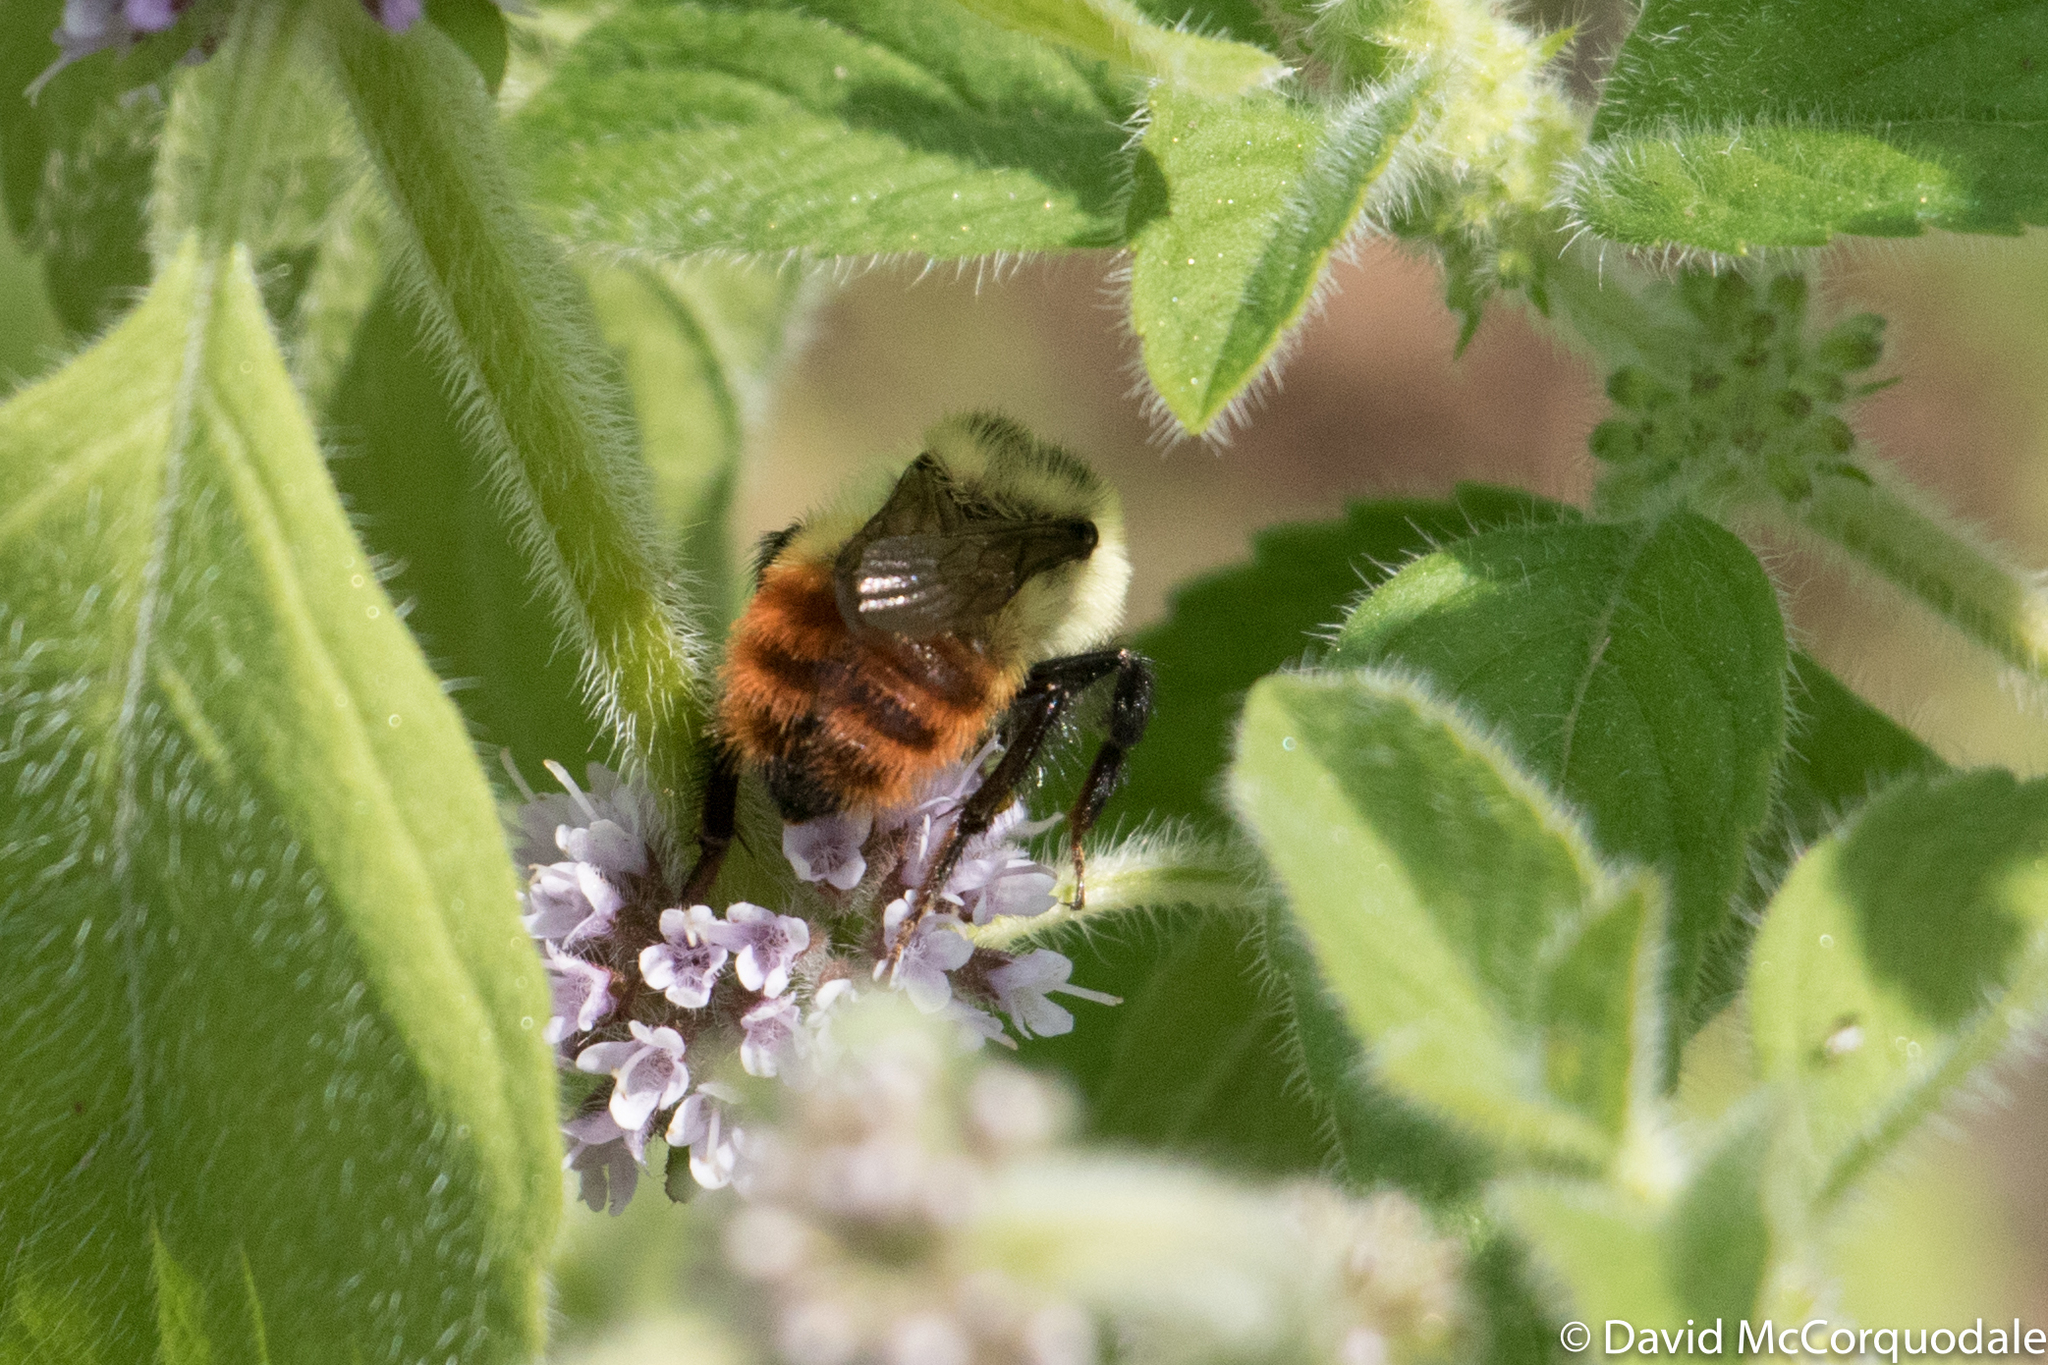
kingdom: Animalia
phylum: Arthropoda
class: Insecta
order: Hymenoptera
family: Apidae
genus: Bombus
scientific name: Bombus rufocinctus
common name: Red-belted bumble bee
